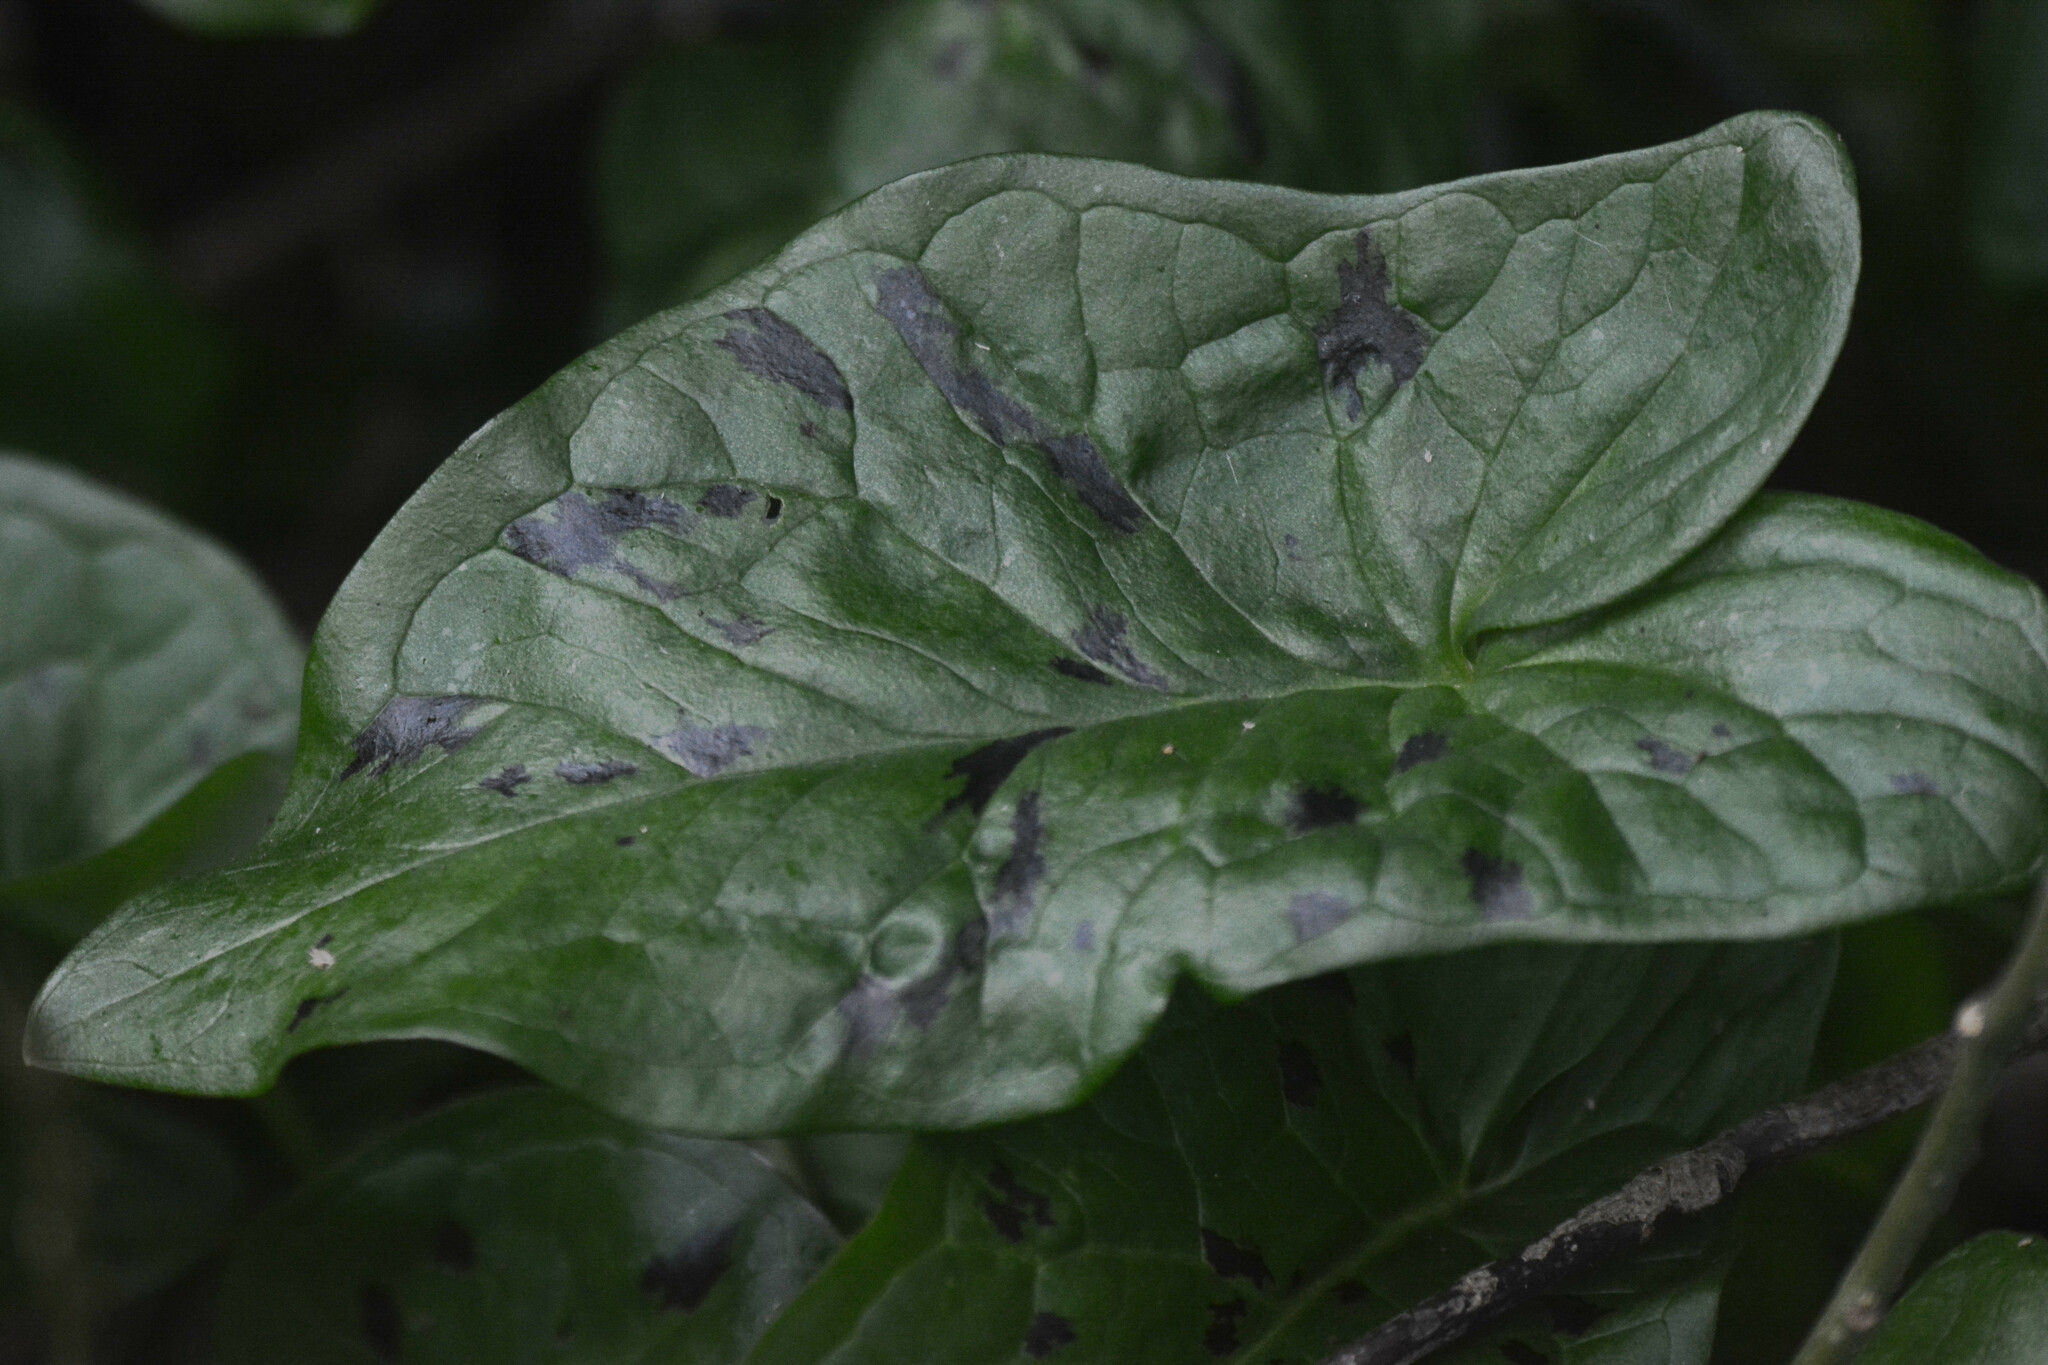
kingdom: Plantae
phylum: Tracheophyta
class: Liliopsida
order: Alismatales
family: Araceae
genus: Arum
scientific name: Arum maculatum
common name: Lords-and-ladies
